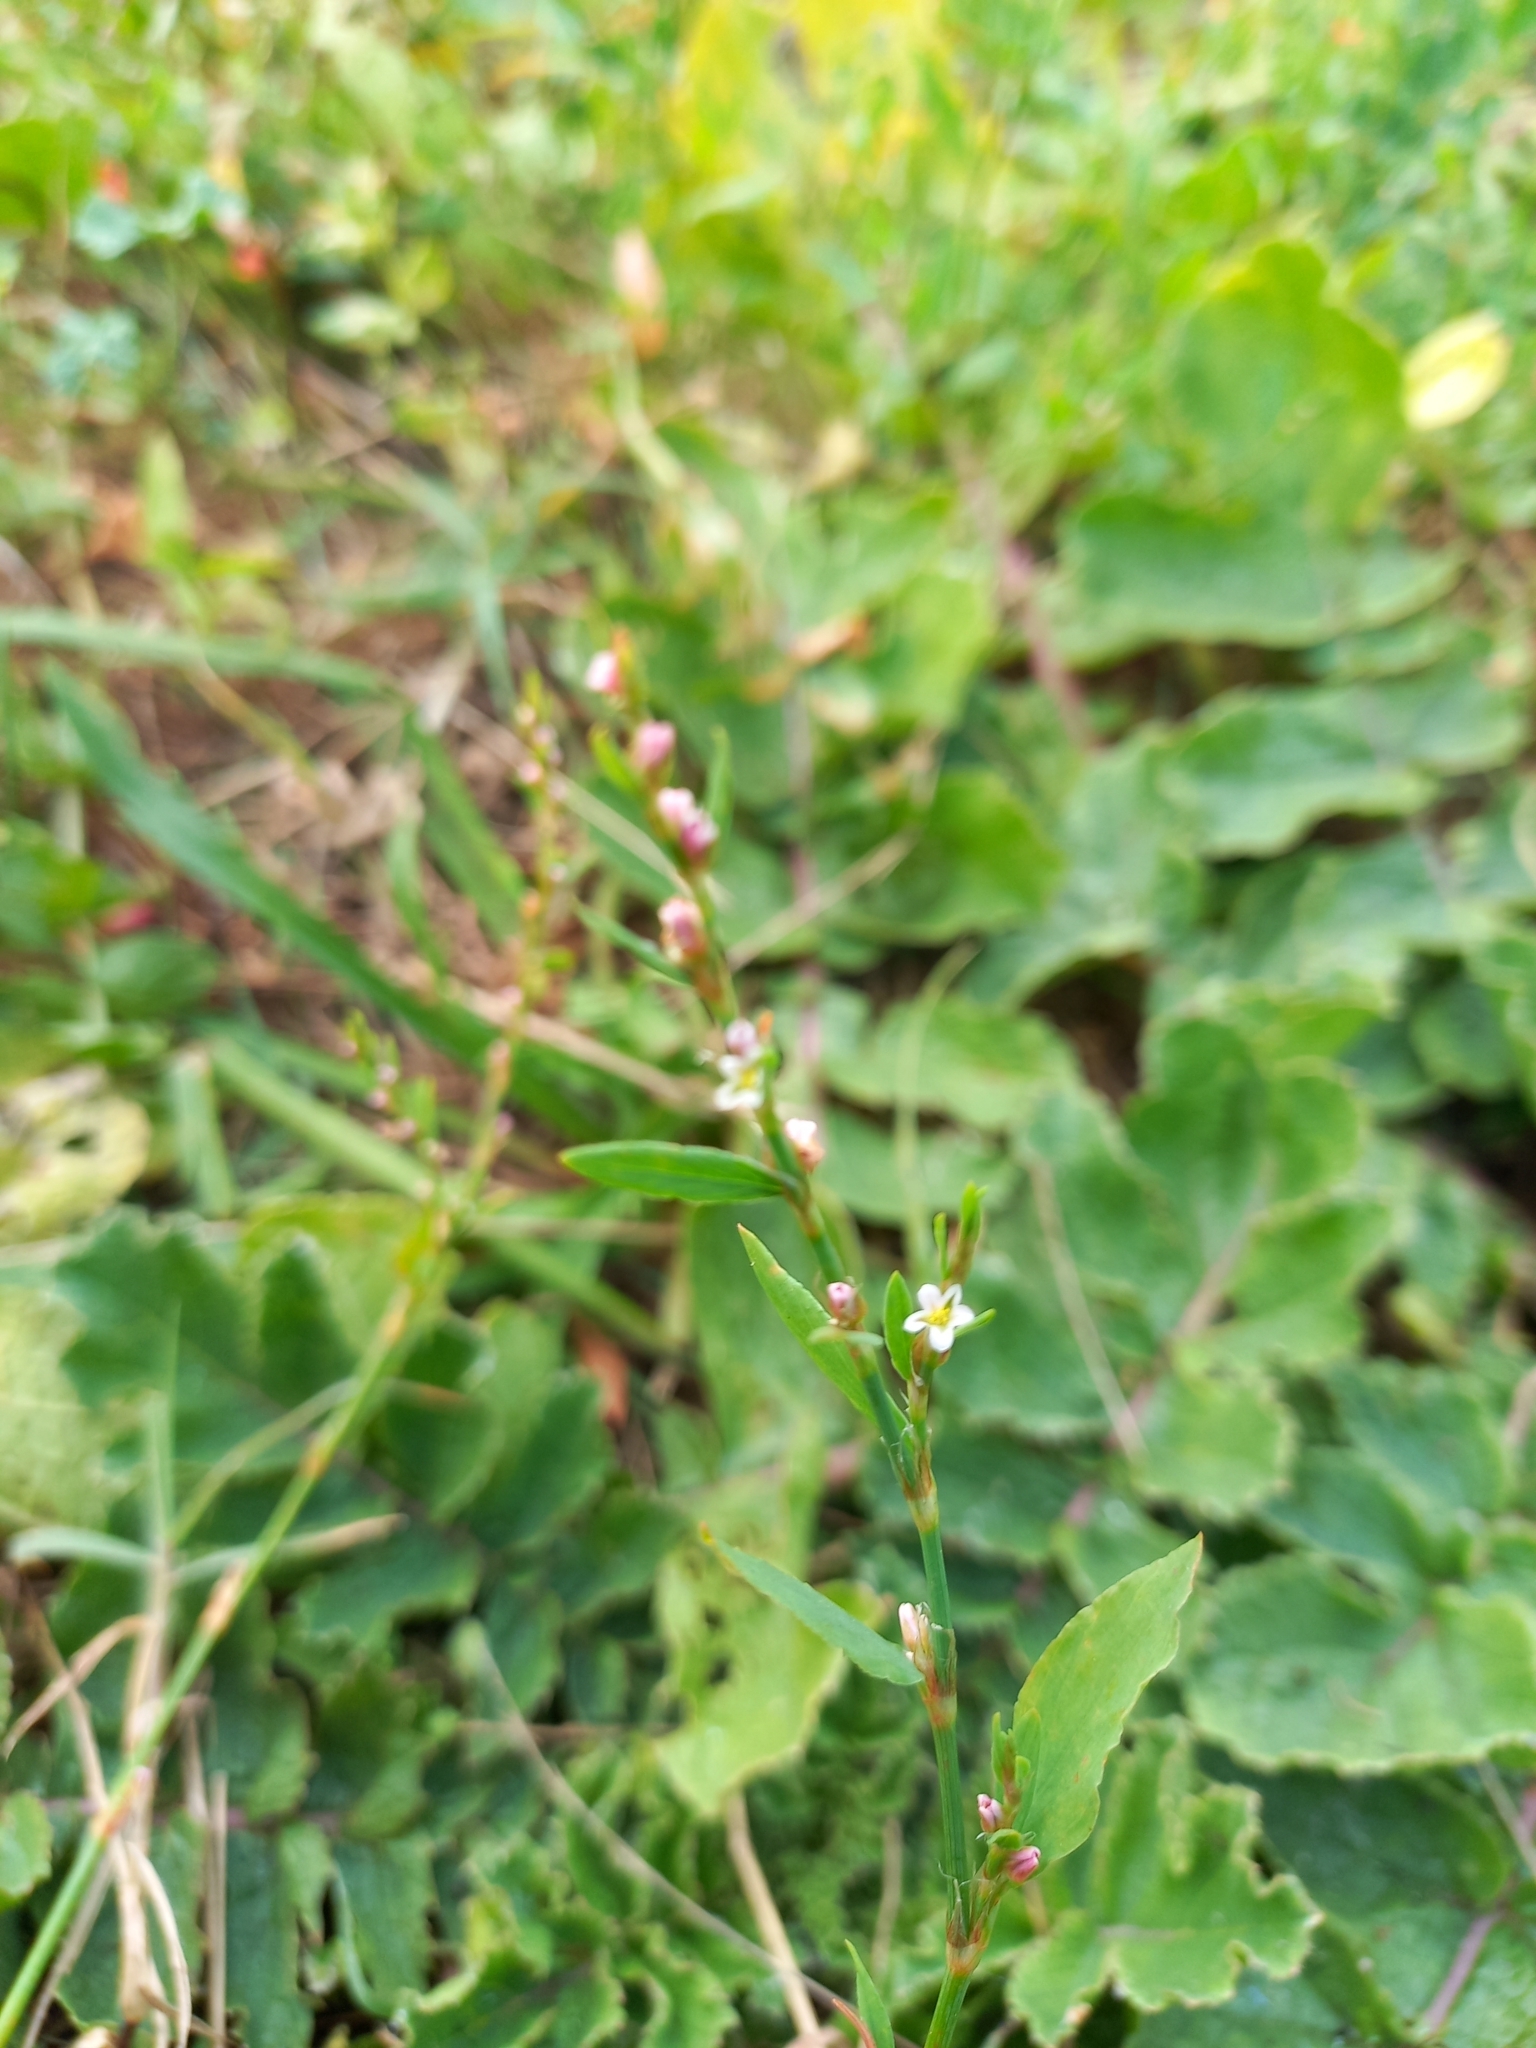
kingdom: Plantae
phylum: Tracheophyta
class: Magnoliopsida
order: Caryophyllales
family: Polygonaceae
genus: Polygonum
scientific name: Polygonum aviculare
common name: Prostrate knotweed
